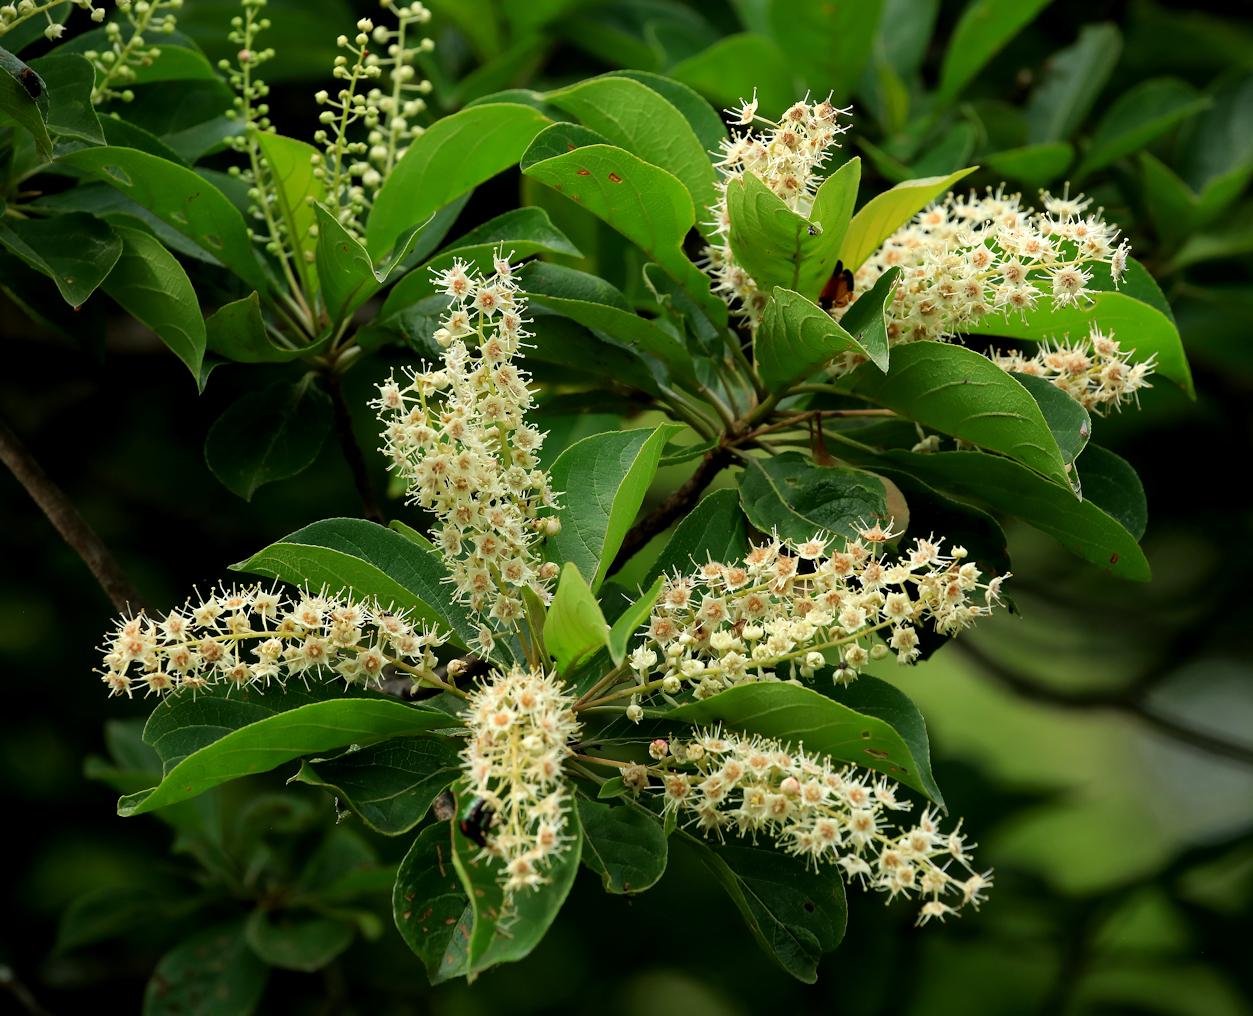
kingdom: Plantae
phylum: Tracheophyta
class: Magnoliopsida
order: Myrtales
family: Combretaceae
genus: Terminalia
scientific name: Terminalia phanerophlebia
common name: Lebombo cluster-leaf
